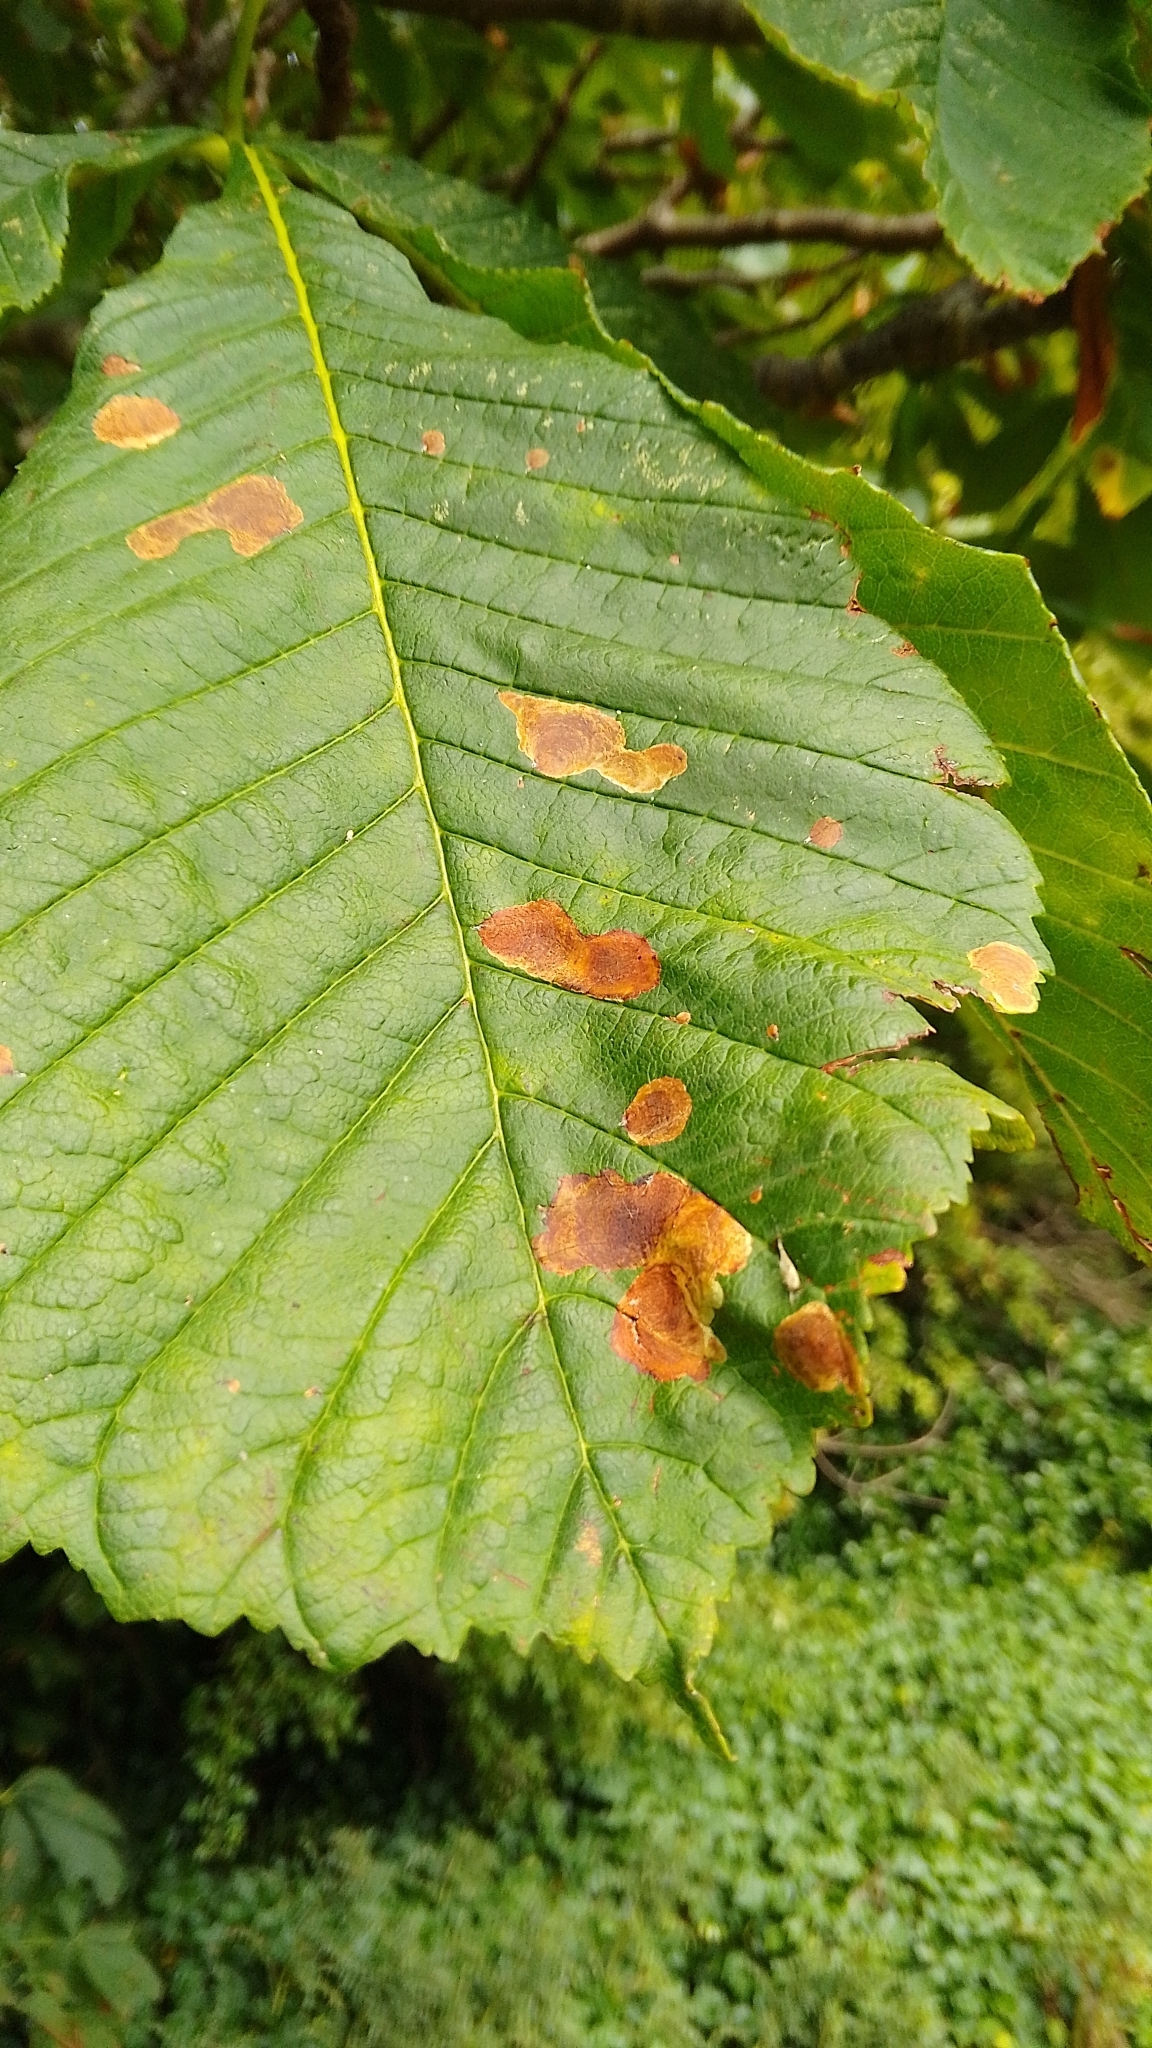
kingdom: Animalia
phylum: Arthropoda
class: Insecta
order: Lepidoptera
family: Gracillariidae
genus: Cameraria
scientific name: Cameraria ohridella
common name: Horse-chestnut leaf-miner
